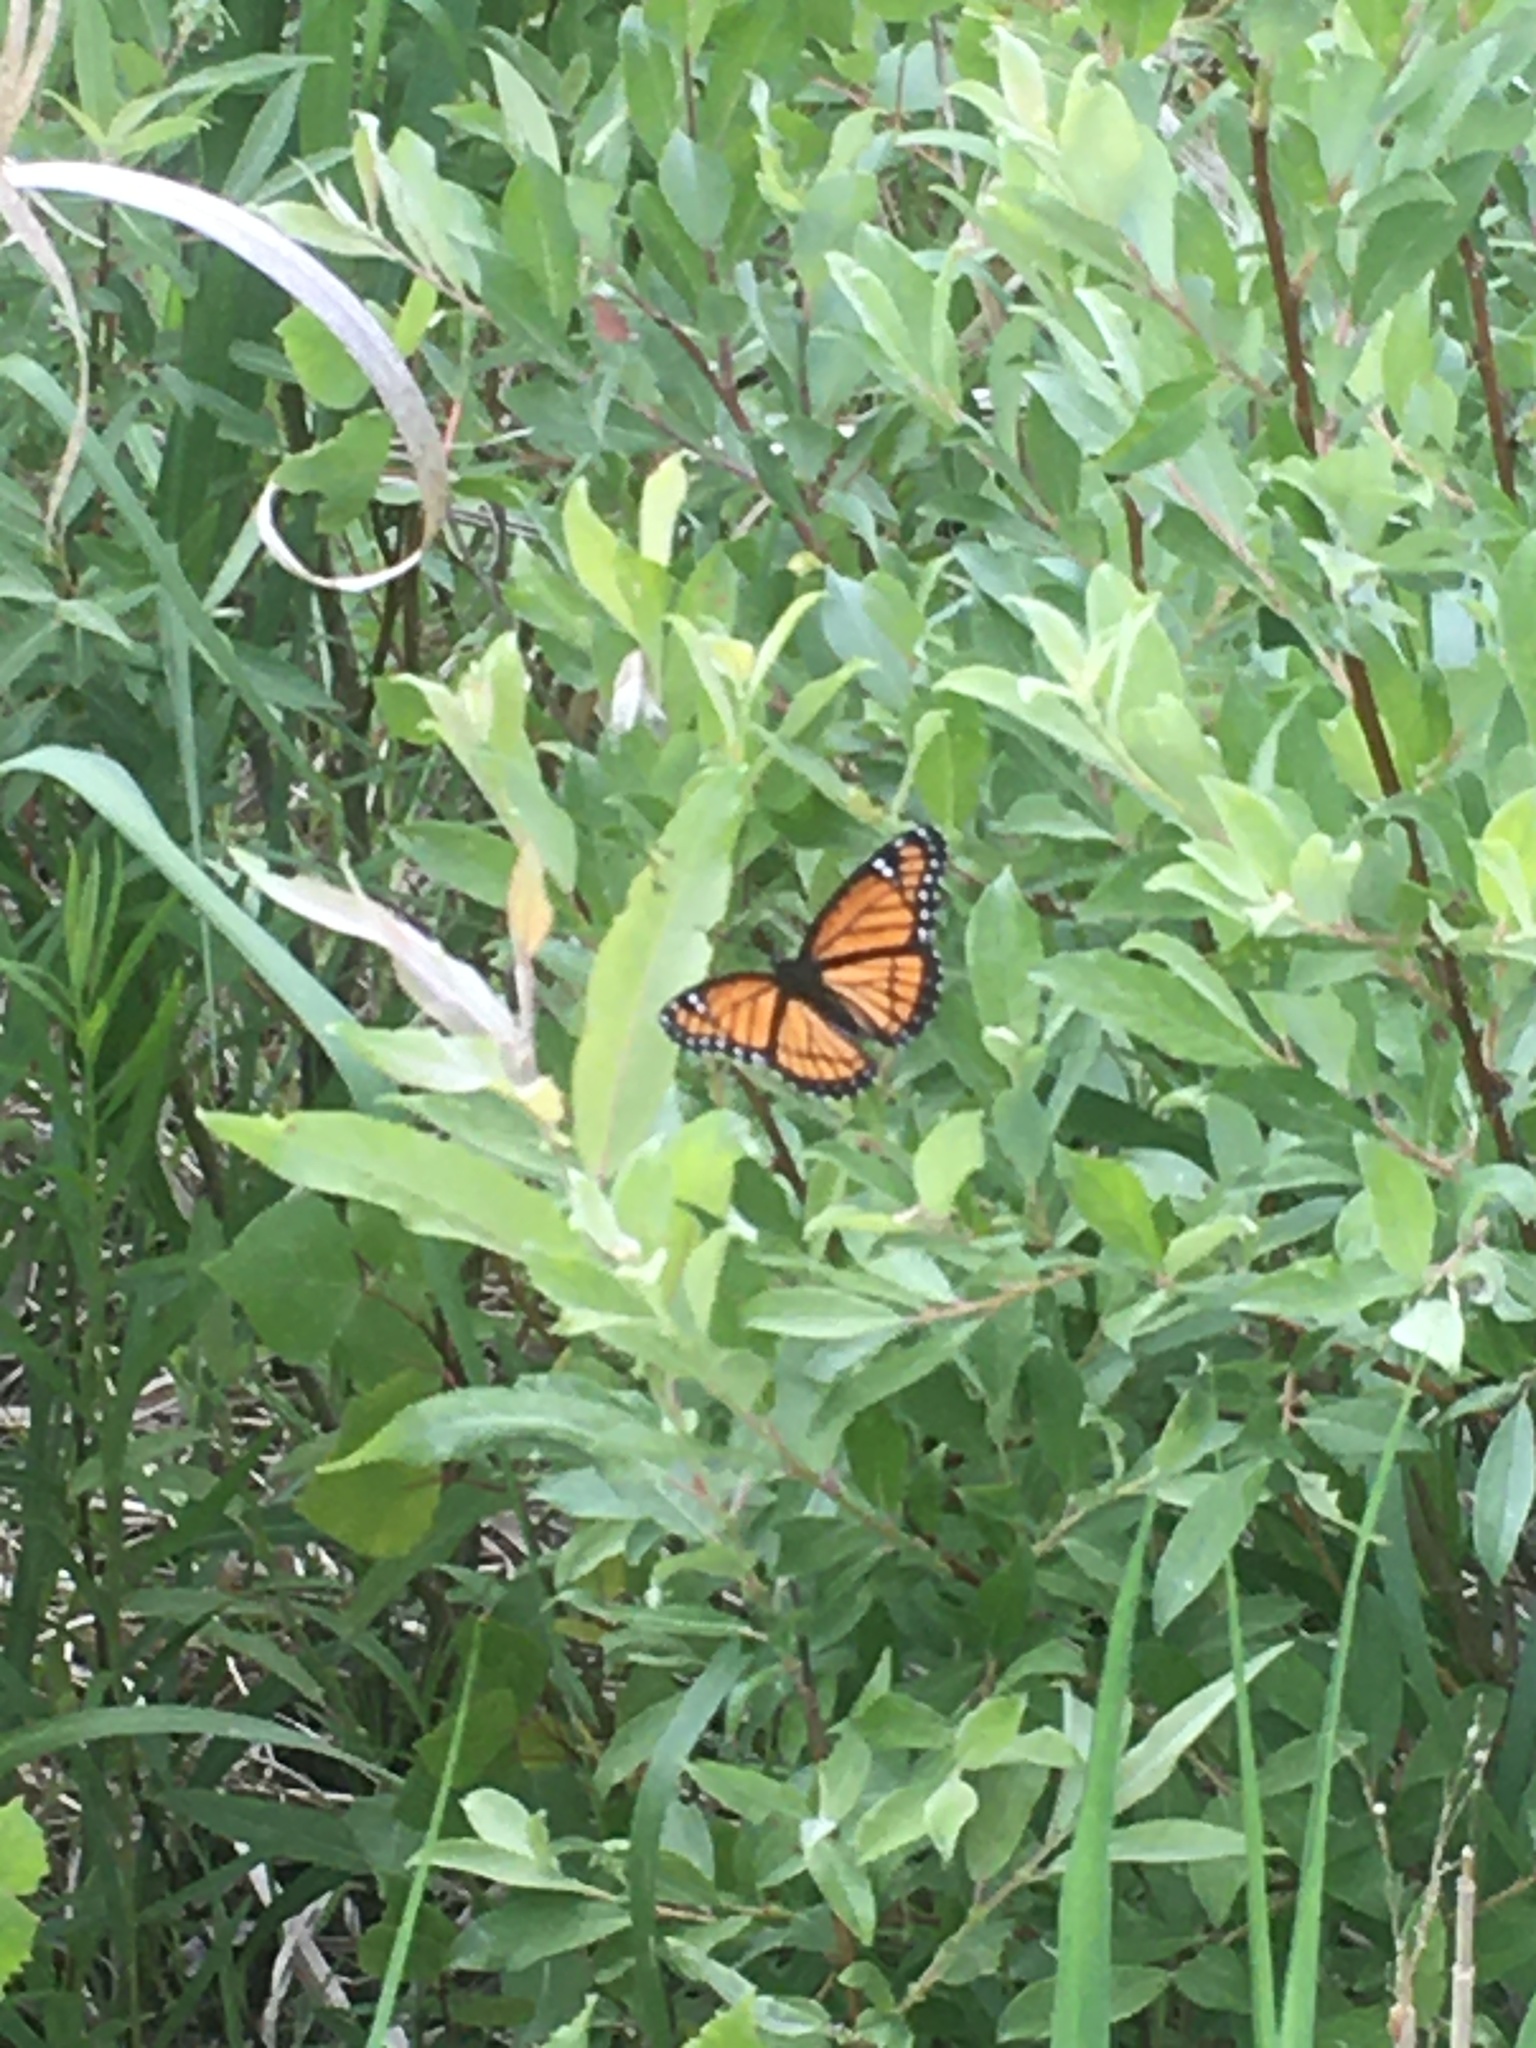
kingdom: Animalia
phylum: Arthropoda
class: Insecta
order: Lepidoptera
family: Nymphalidae
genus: Limenitis
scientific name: Limenitis archippus
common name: Viceroy
